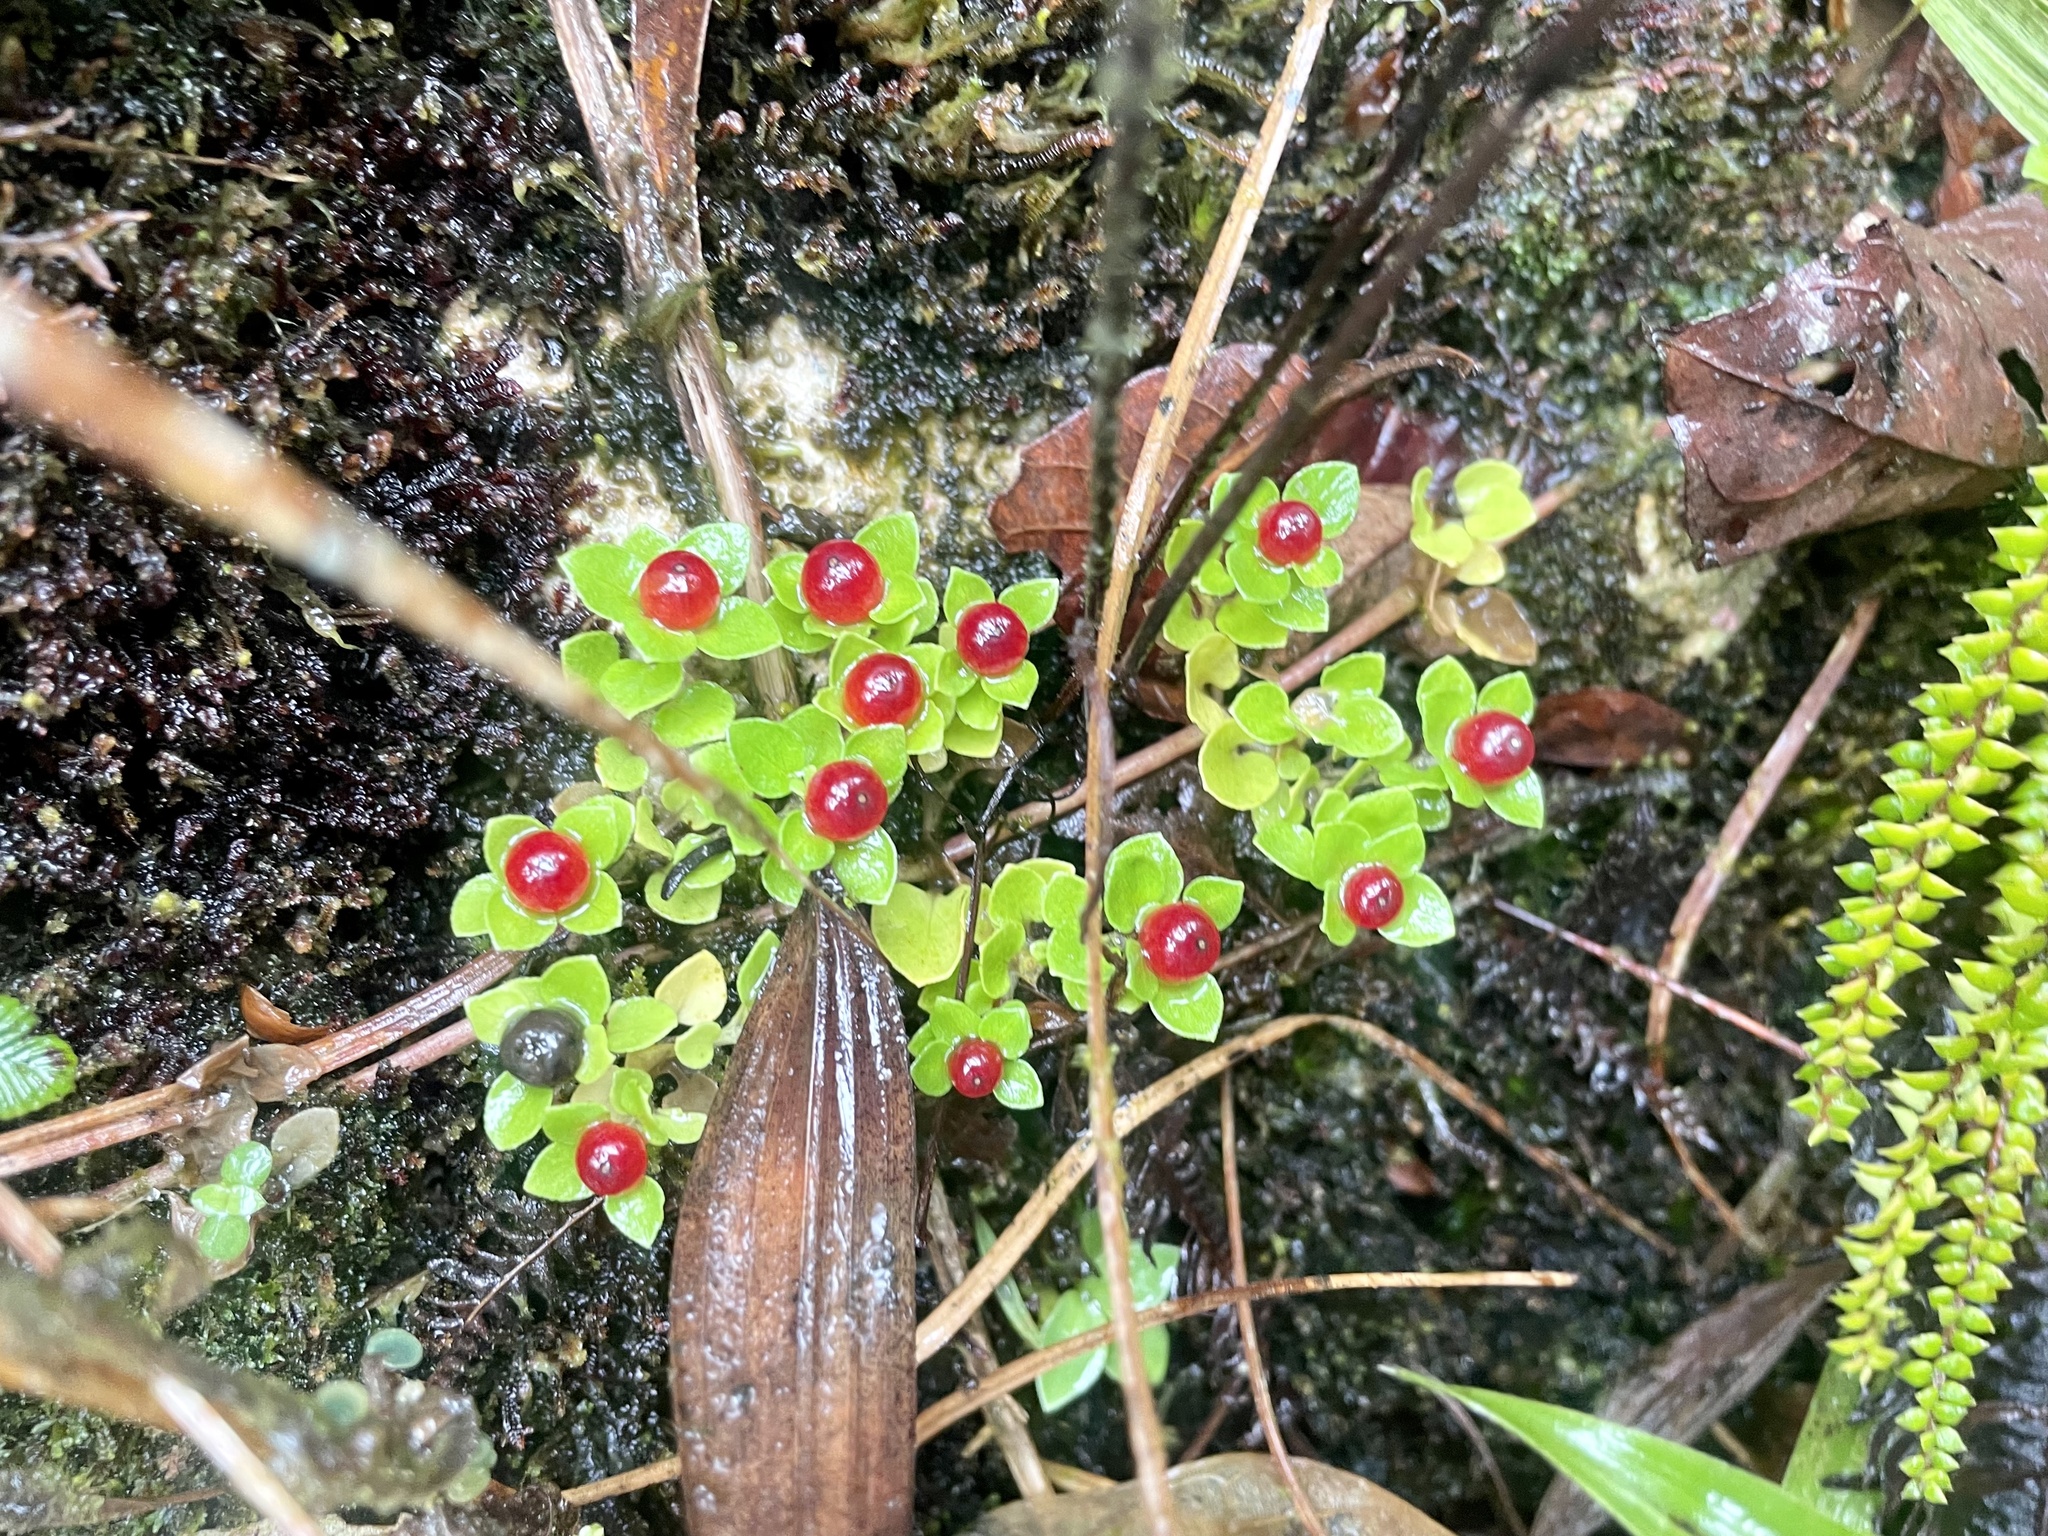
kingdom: Plantae
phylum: Tracheophyta
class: Magnoliopsida
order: Gentianales
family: Rubiaceae
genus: Nertera
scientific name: Nertera granadensis
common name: Beadplant
